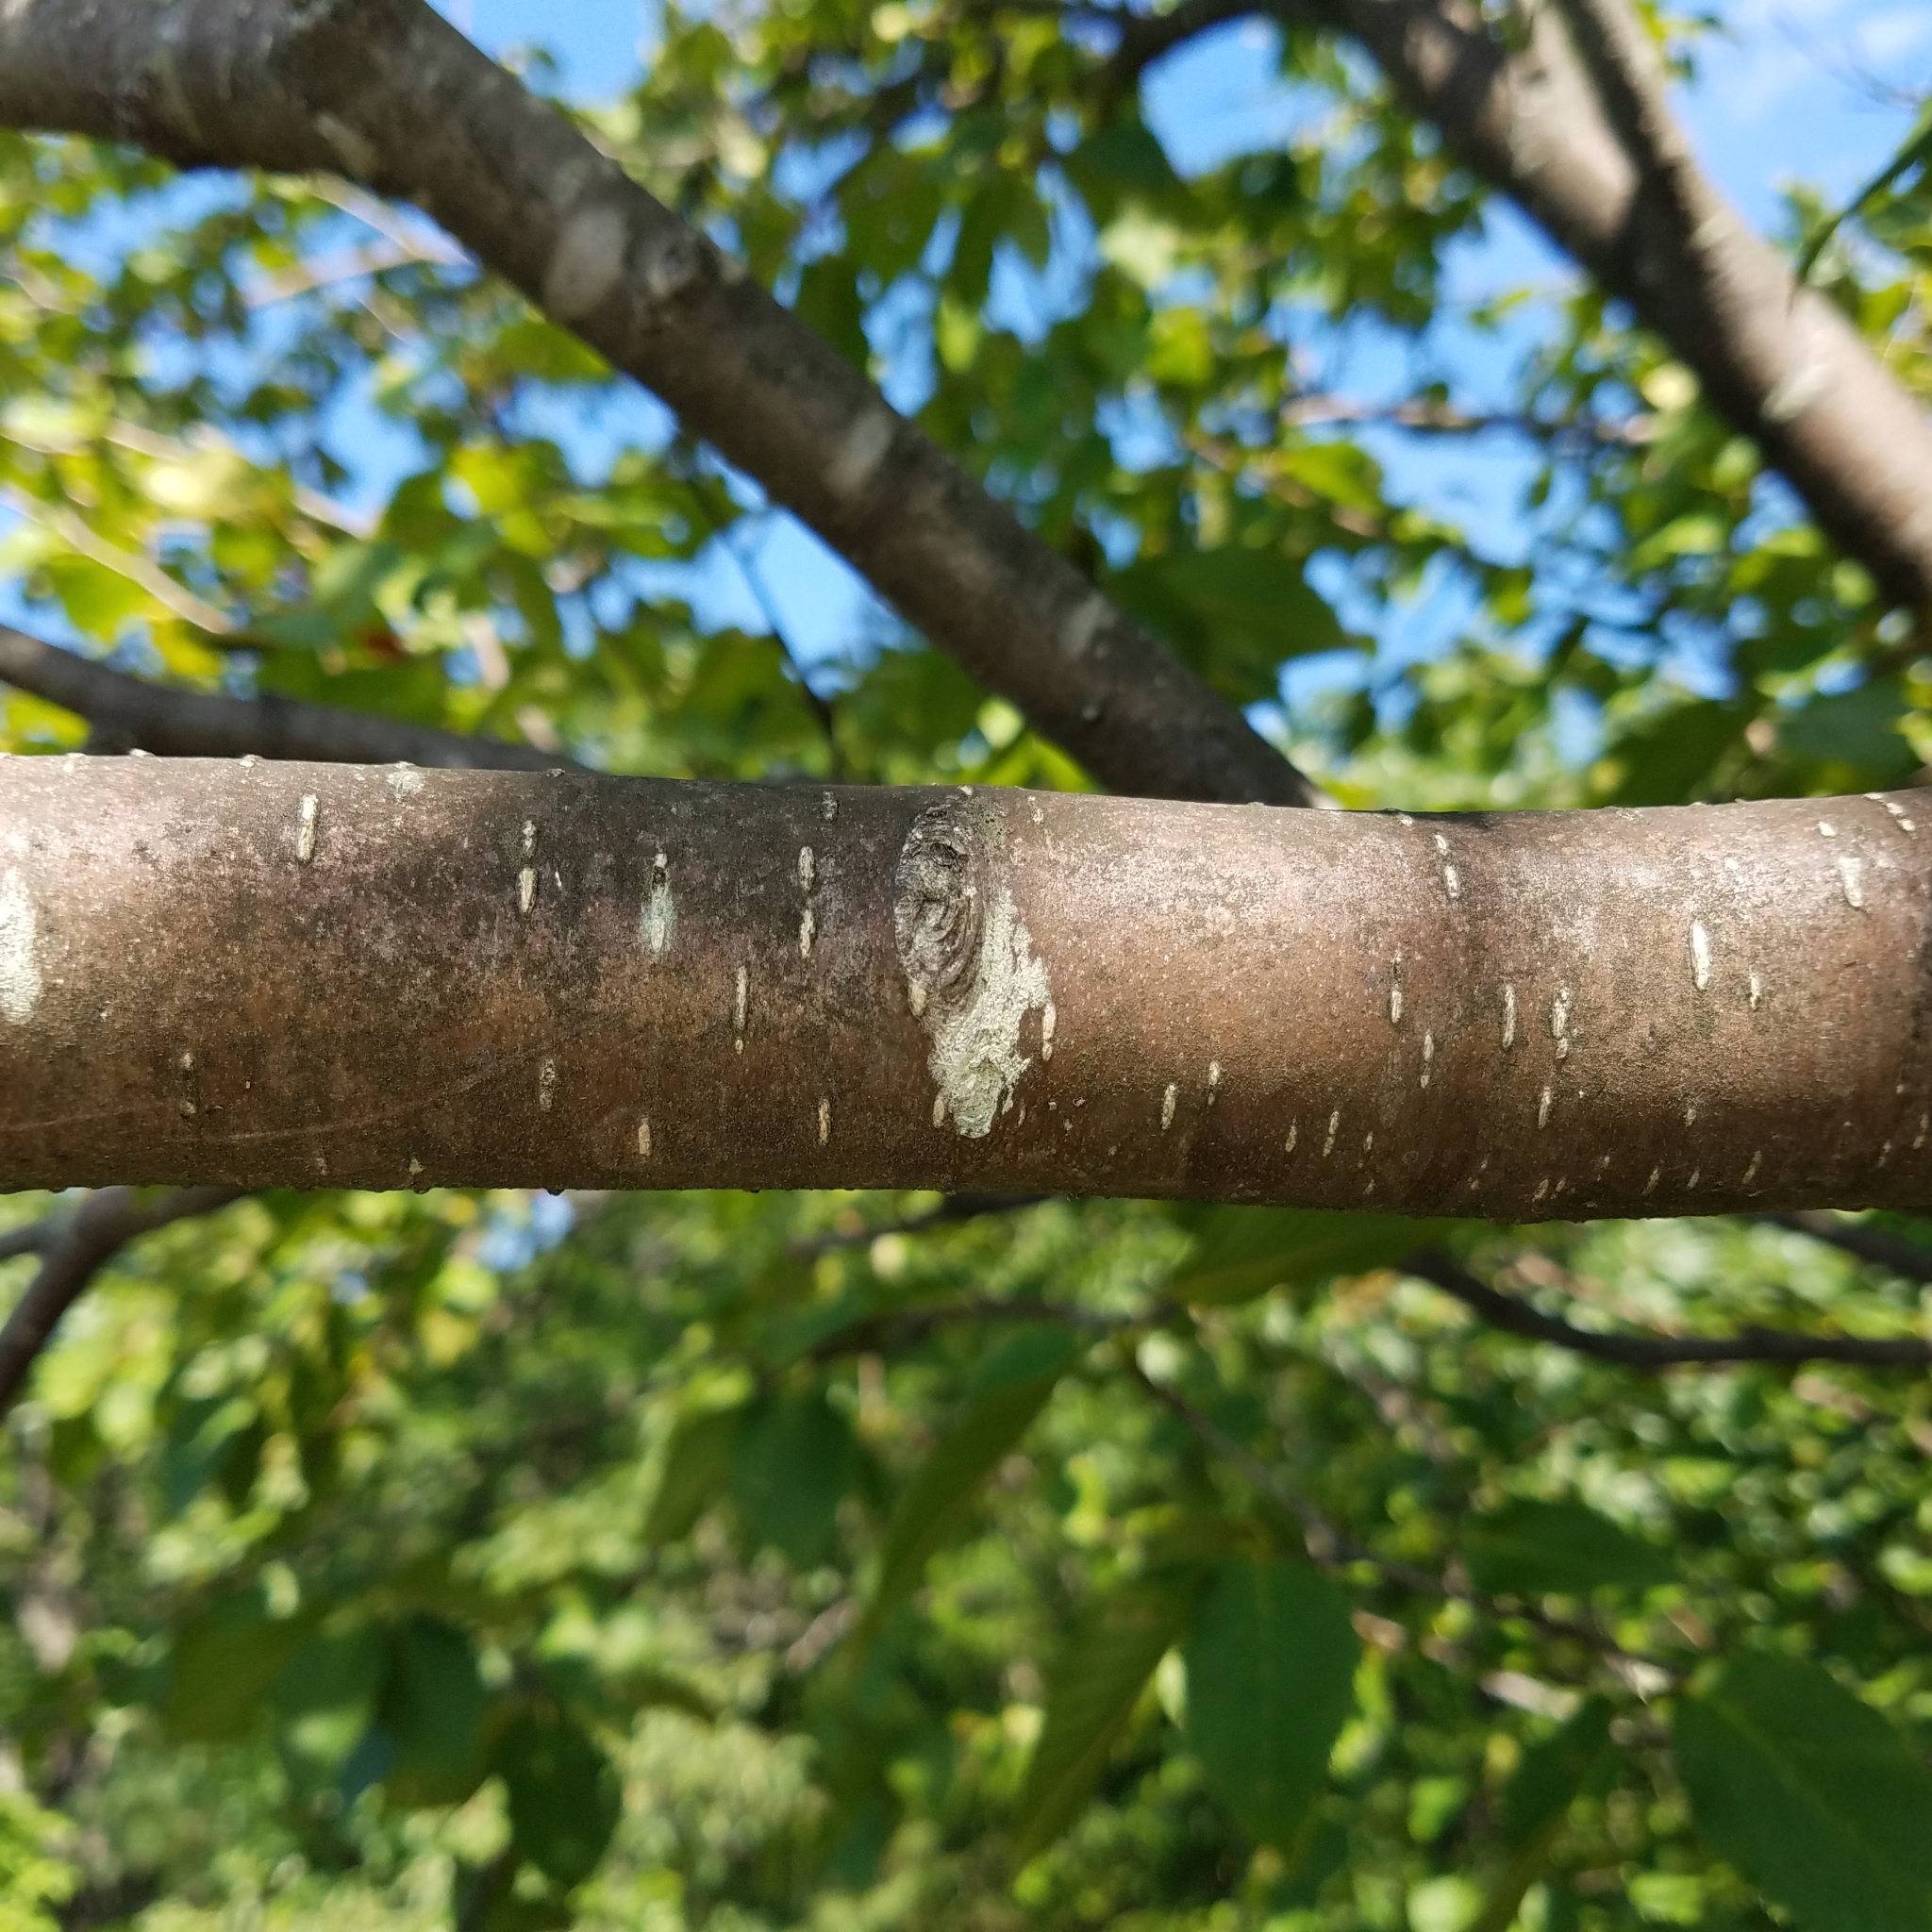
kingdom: Plantae
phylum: Tracheophyta
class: Magnoliopsida
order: Fagales
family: Betulaceae
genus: Betula
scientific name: Betula lenta
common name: Black birch
